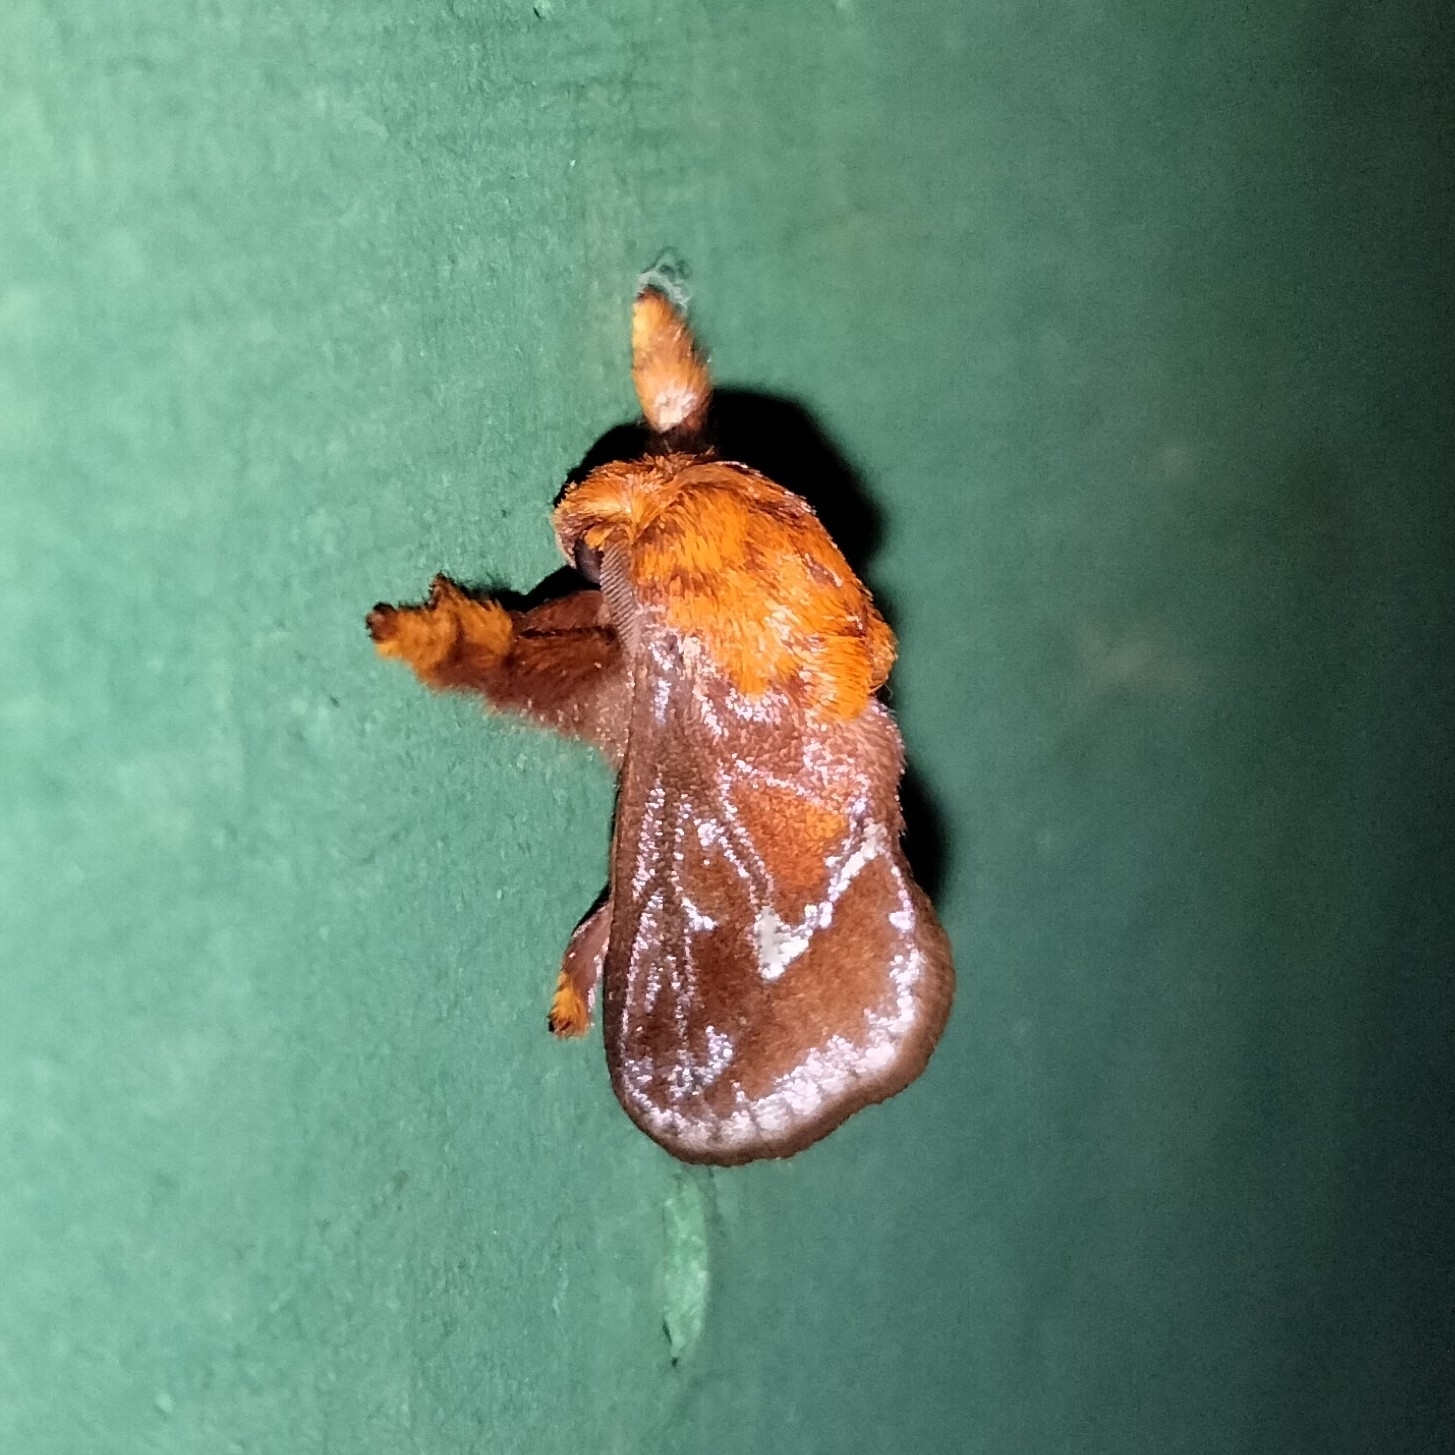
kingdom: Animalia
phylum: Arthropoda
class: Insecta
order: Lepidoptera
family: Limacodidae
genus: Miresa
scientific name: Miresa pyronota
